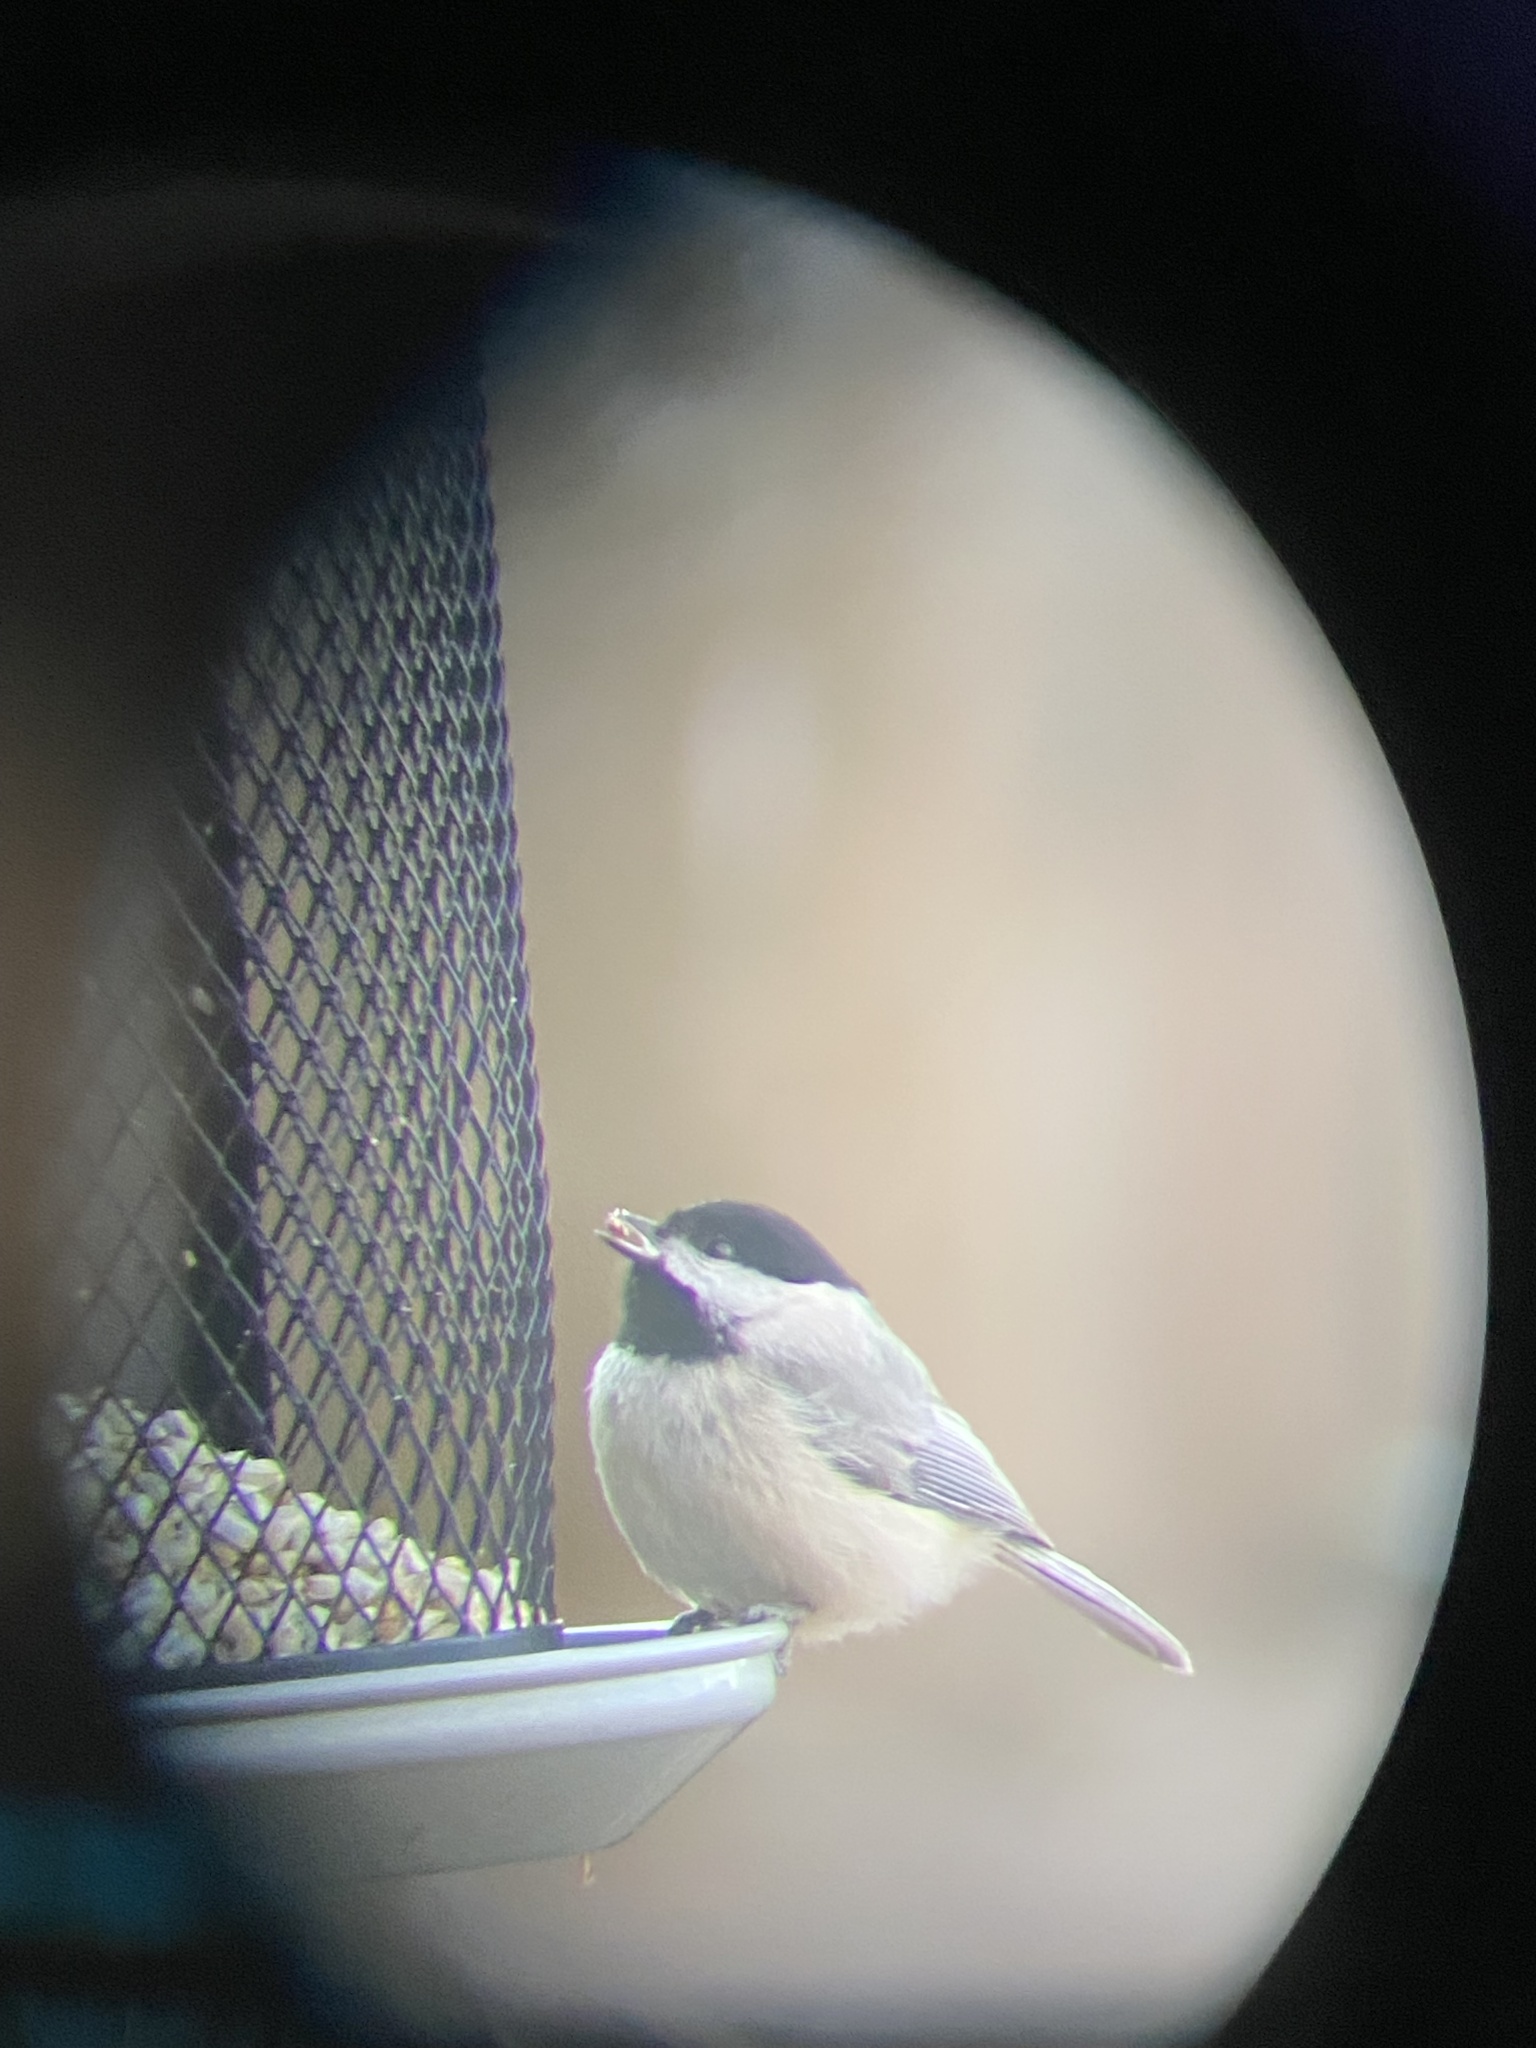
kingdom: Animalia
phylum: Chordata
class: Aves
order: Passeriformes
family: Paridae
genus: Poecile
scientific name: Poecile carolinensis
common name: Carolina chickadee
